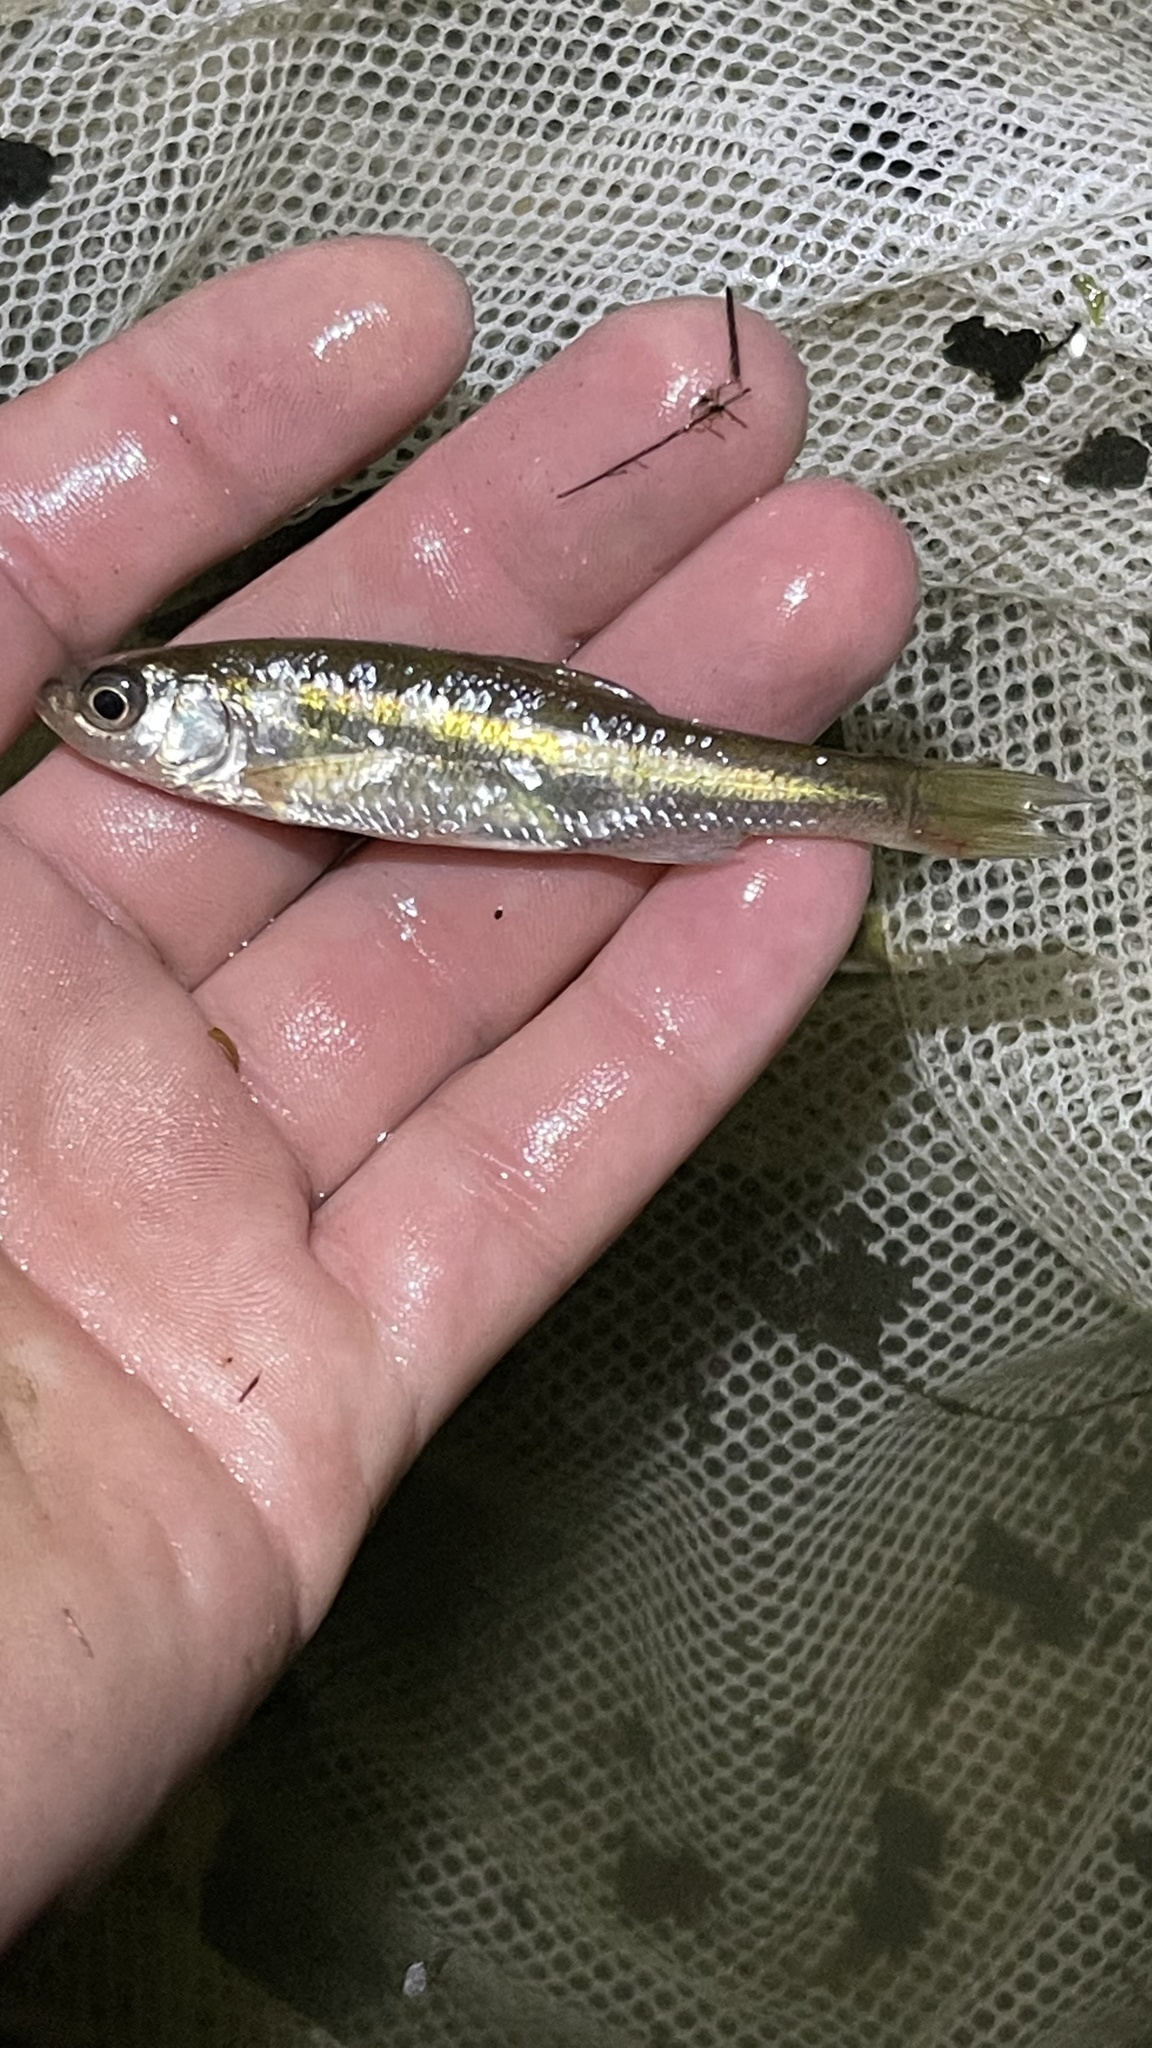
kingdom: Animalia
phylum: Chordata
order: Cypriniformes
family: Cyprinidae
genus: Luxilus
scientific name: Luxilus cornutus
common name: Common shiner
